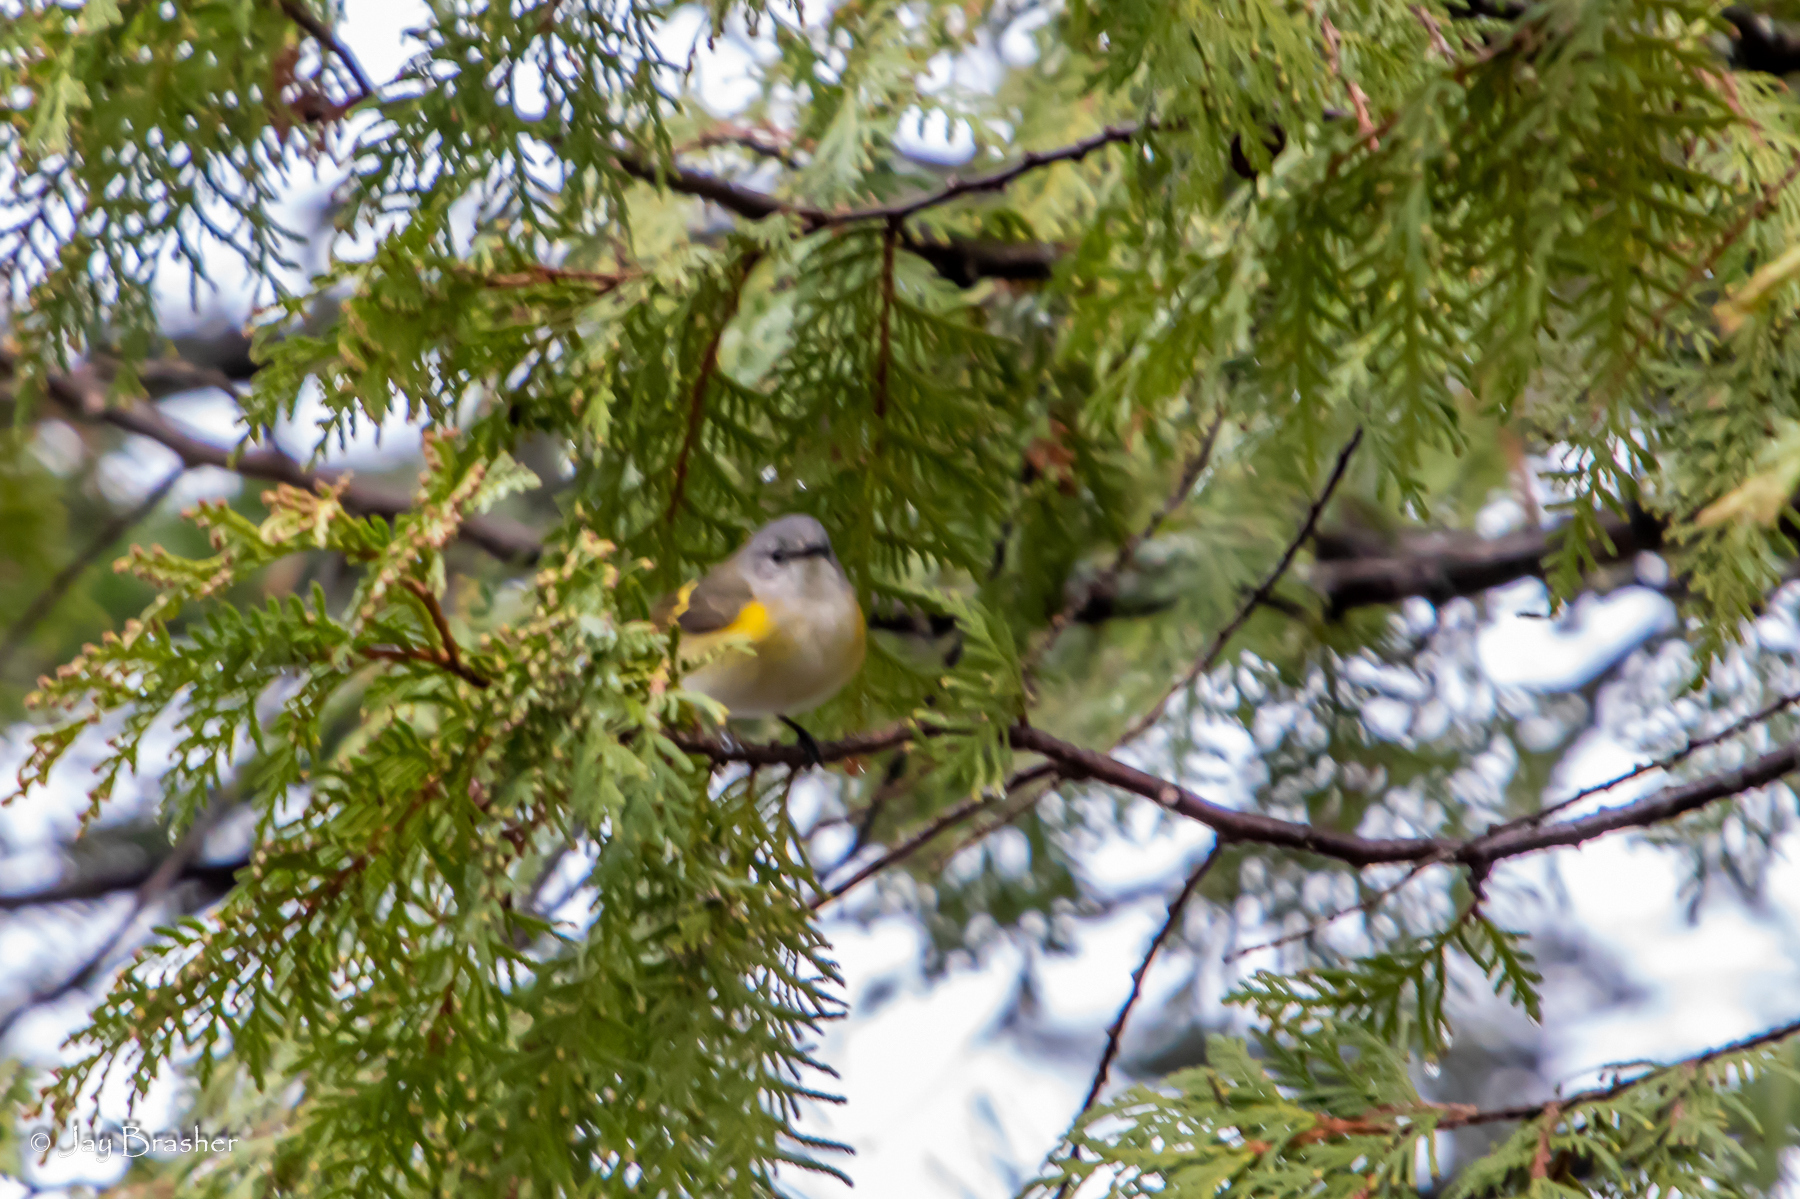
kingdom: Animalia
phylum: Chordata
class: Aves
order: Passeriformes
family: Parulidae
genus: Setophaga
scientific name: Setophaga ruticilla
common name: American redstart
